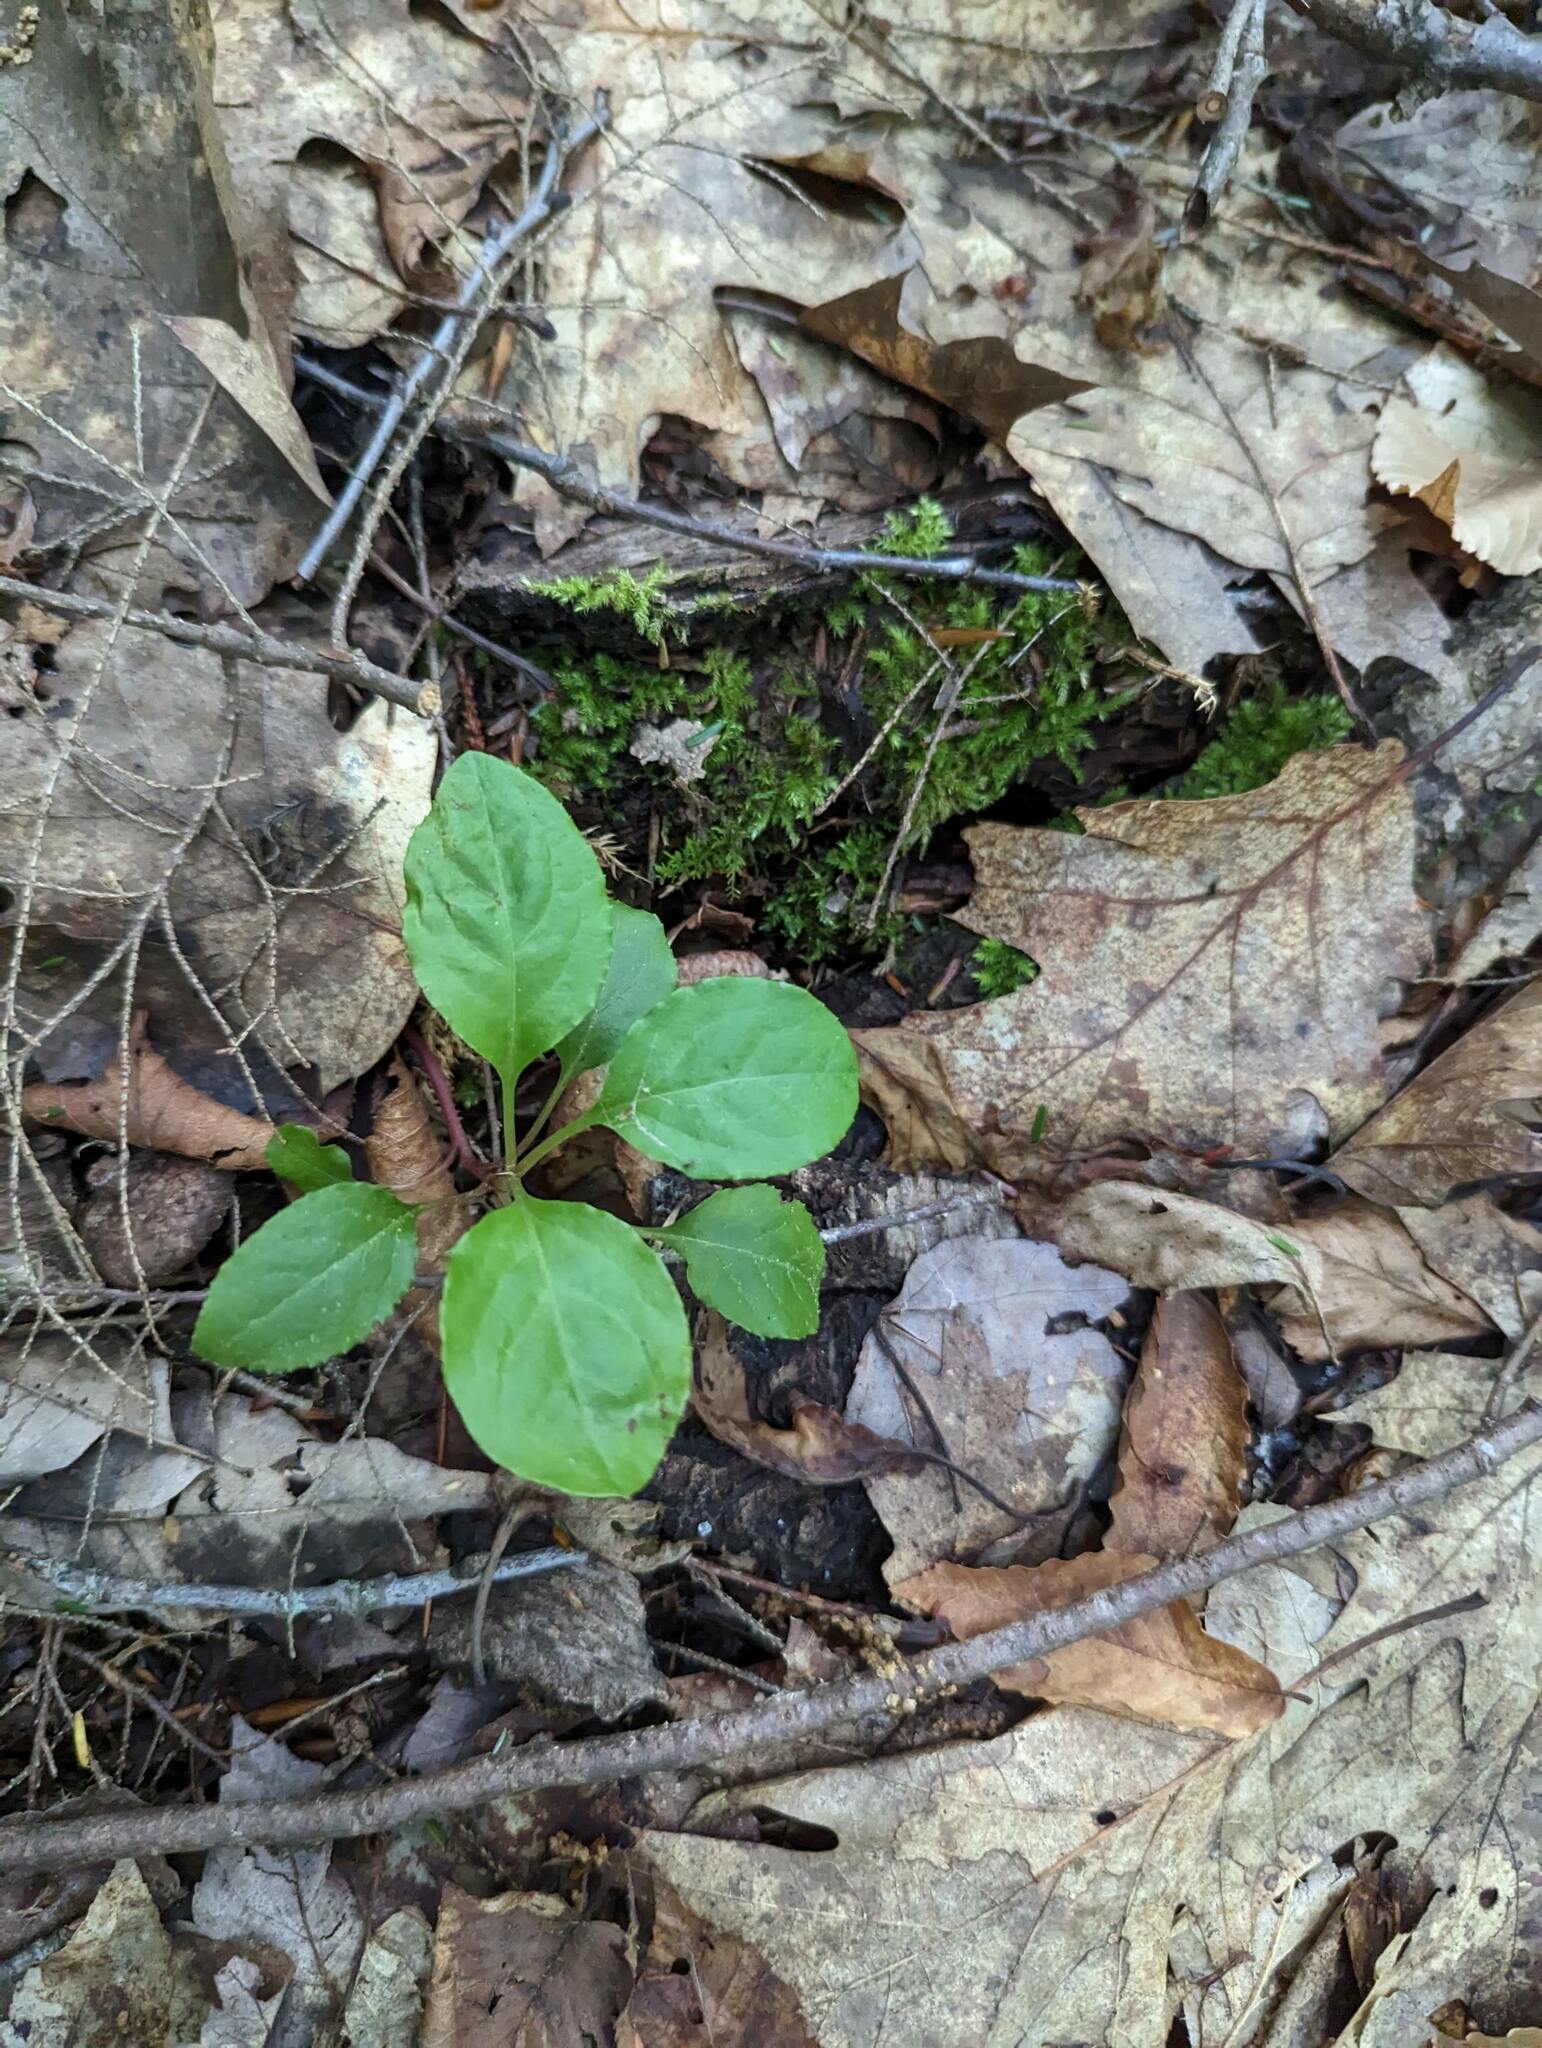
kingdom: Plantae
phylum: Tracheophyta
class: Magnoliopsida
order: Ericales
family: Ericaceae
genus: Pyrola
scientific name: Pyrola elliptica
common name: Shinleaf
